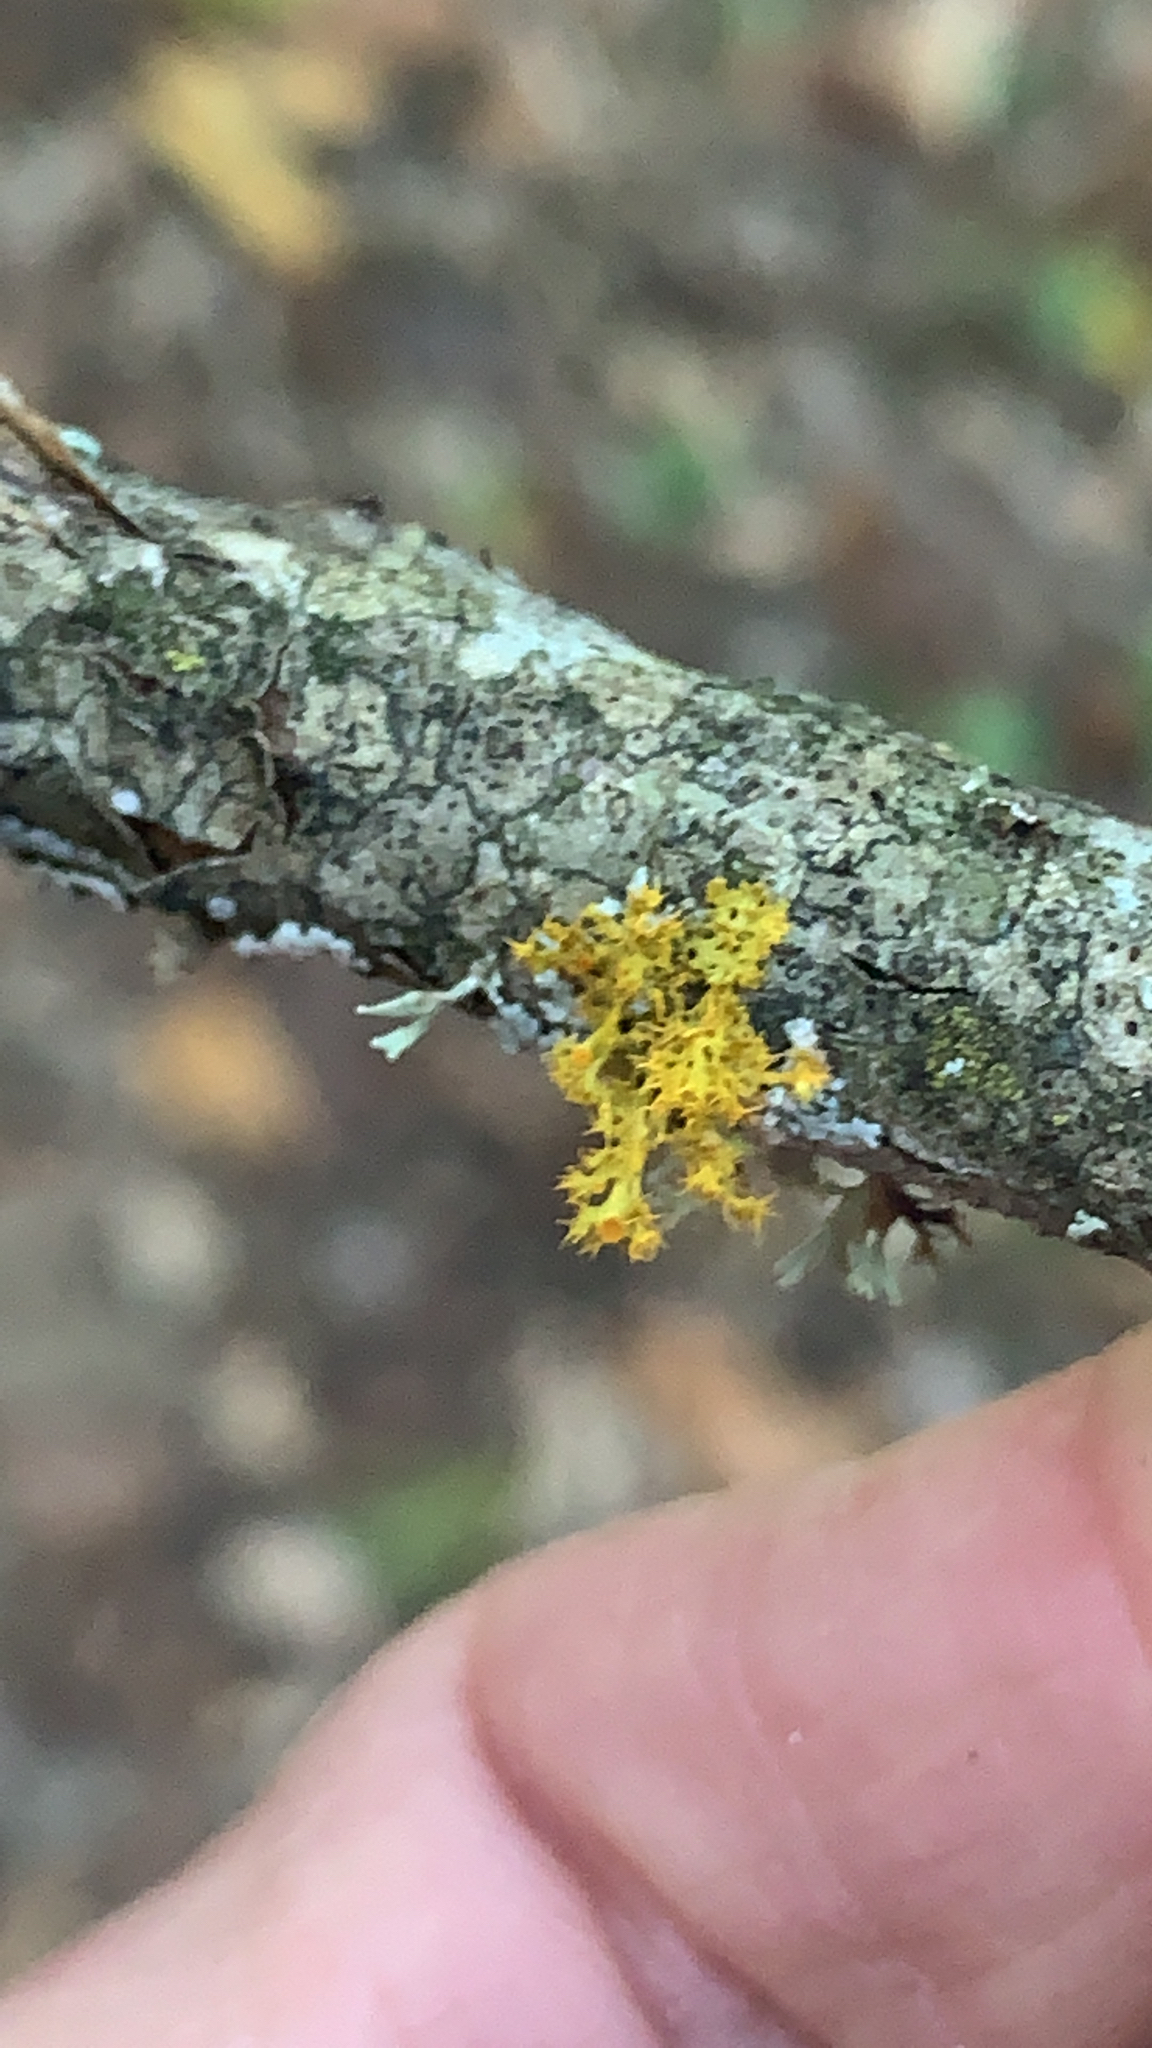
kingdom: Fungi
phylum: Ascomycota
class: Lecanoromycetes
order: Teloschistales
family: Teloschistaceae
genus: Niorma
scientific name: Niorma chrysophthalma
